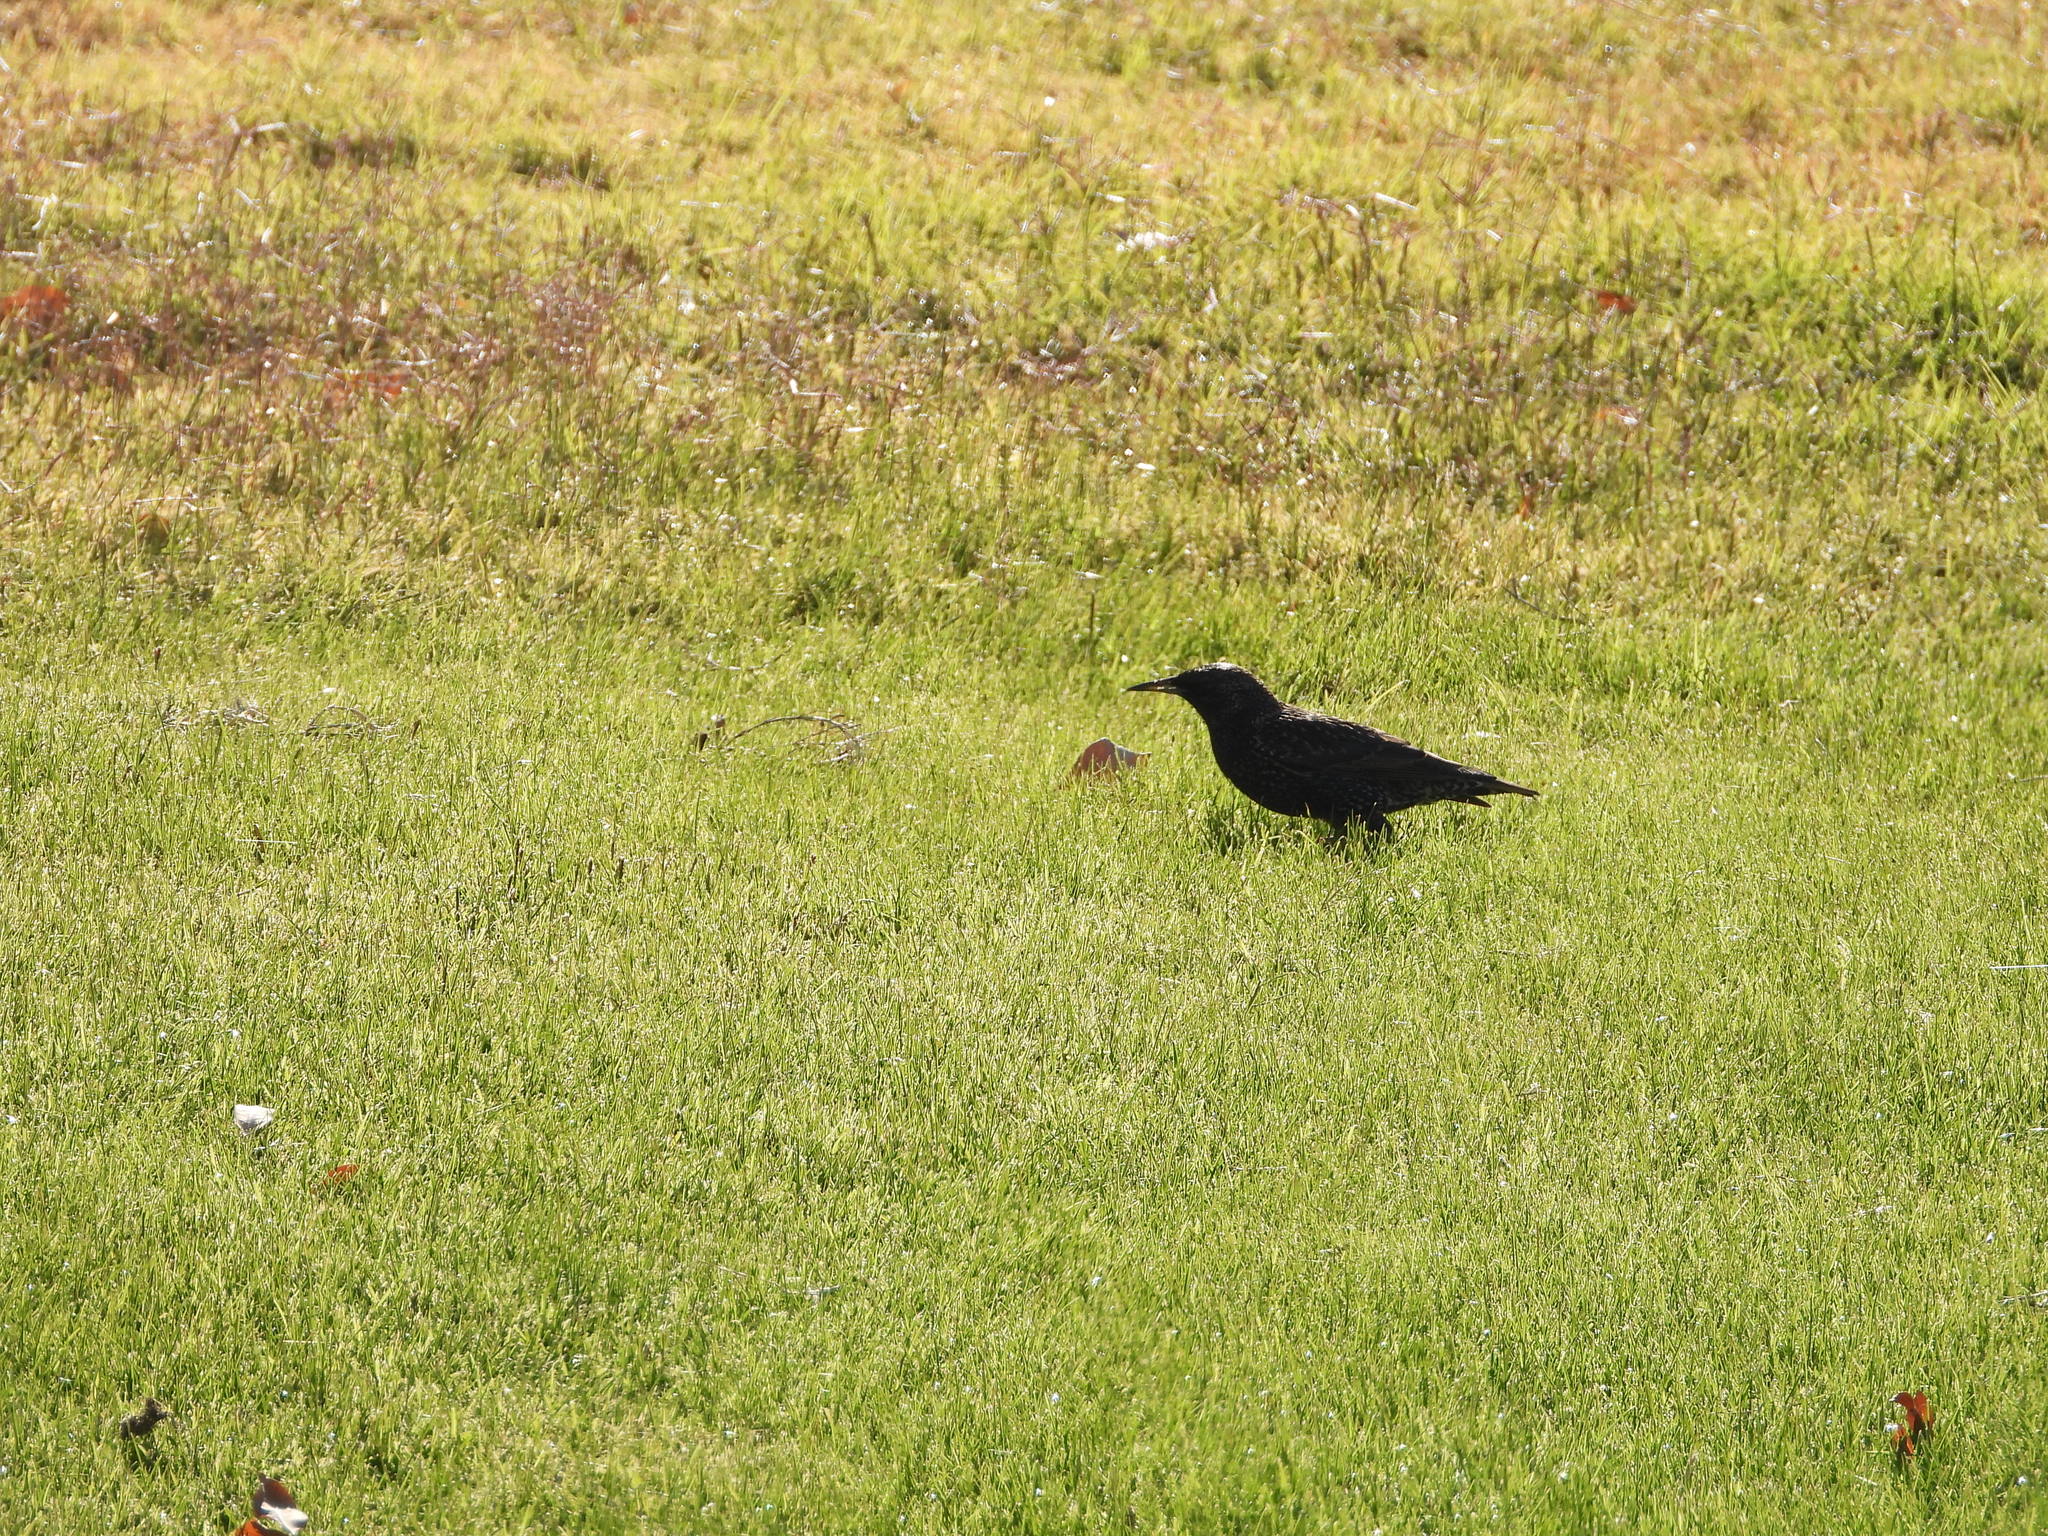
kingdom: Animalia
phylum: Chordata
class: Aves
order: Passeriformes
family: Sturnidae
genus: Sturnus
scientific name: Sturnus vulgaris
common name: Common starling
